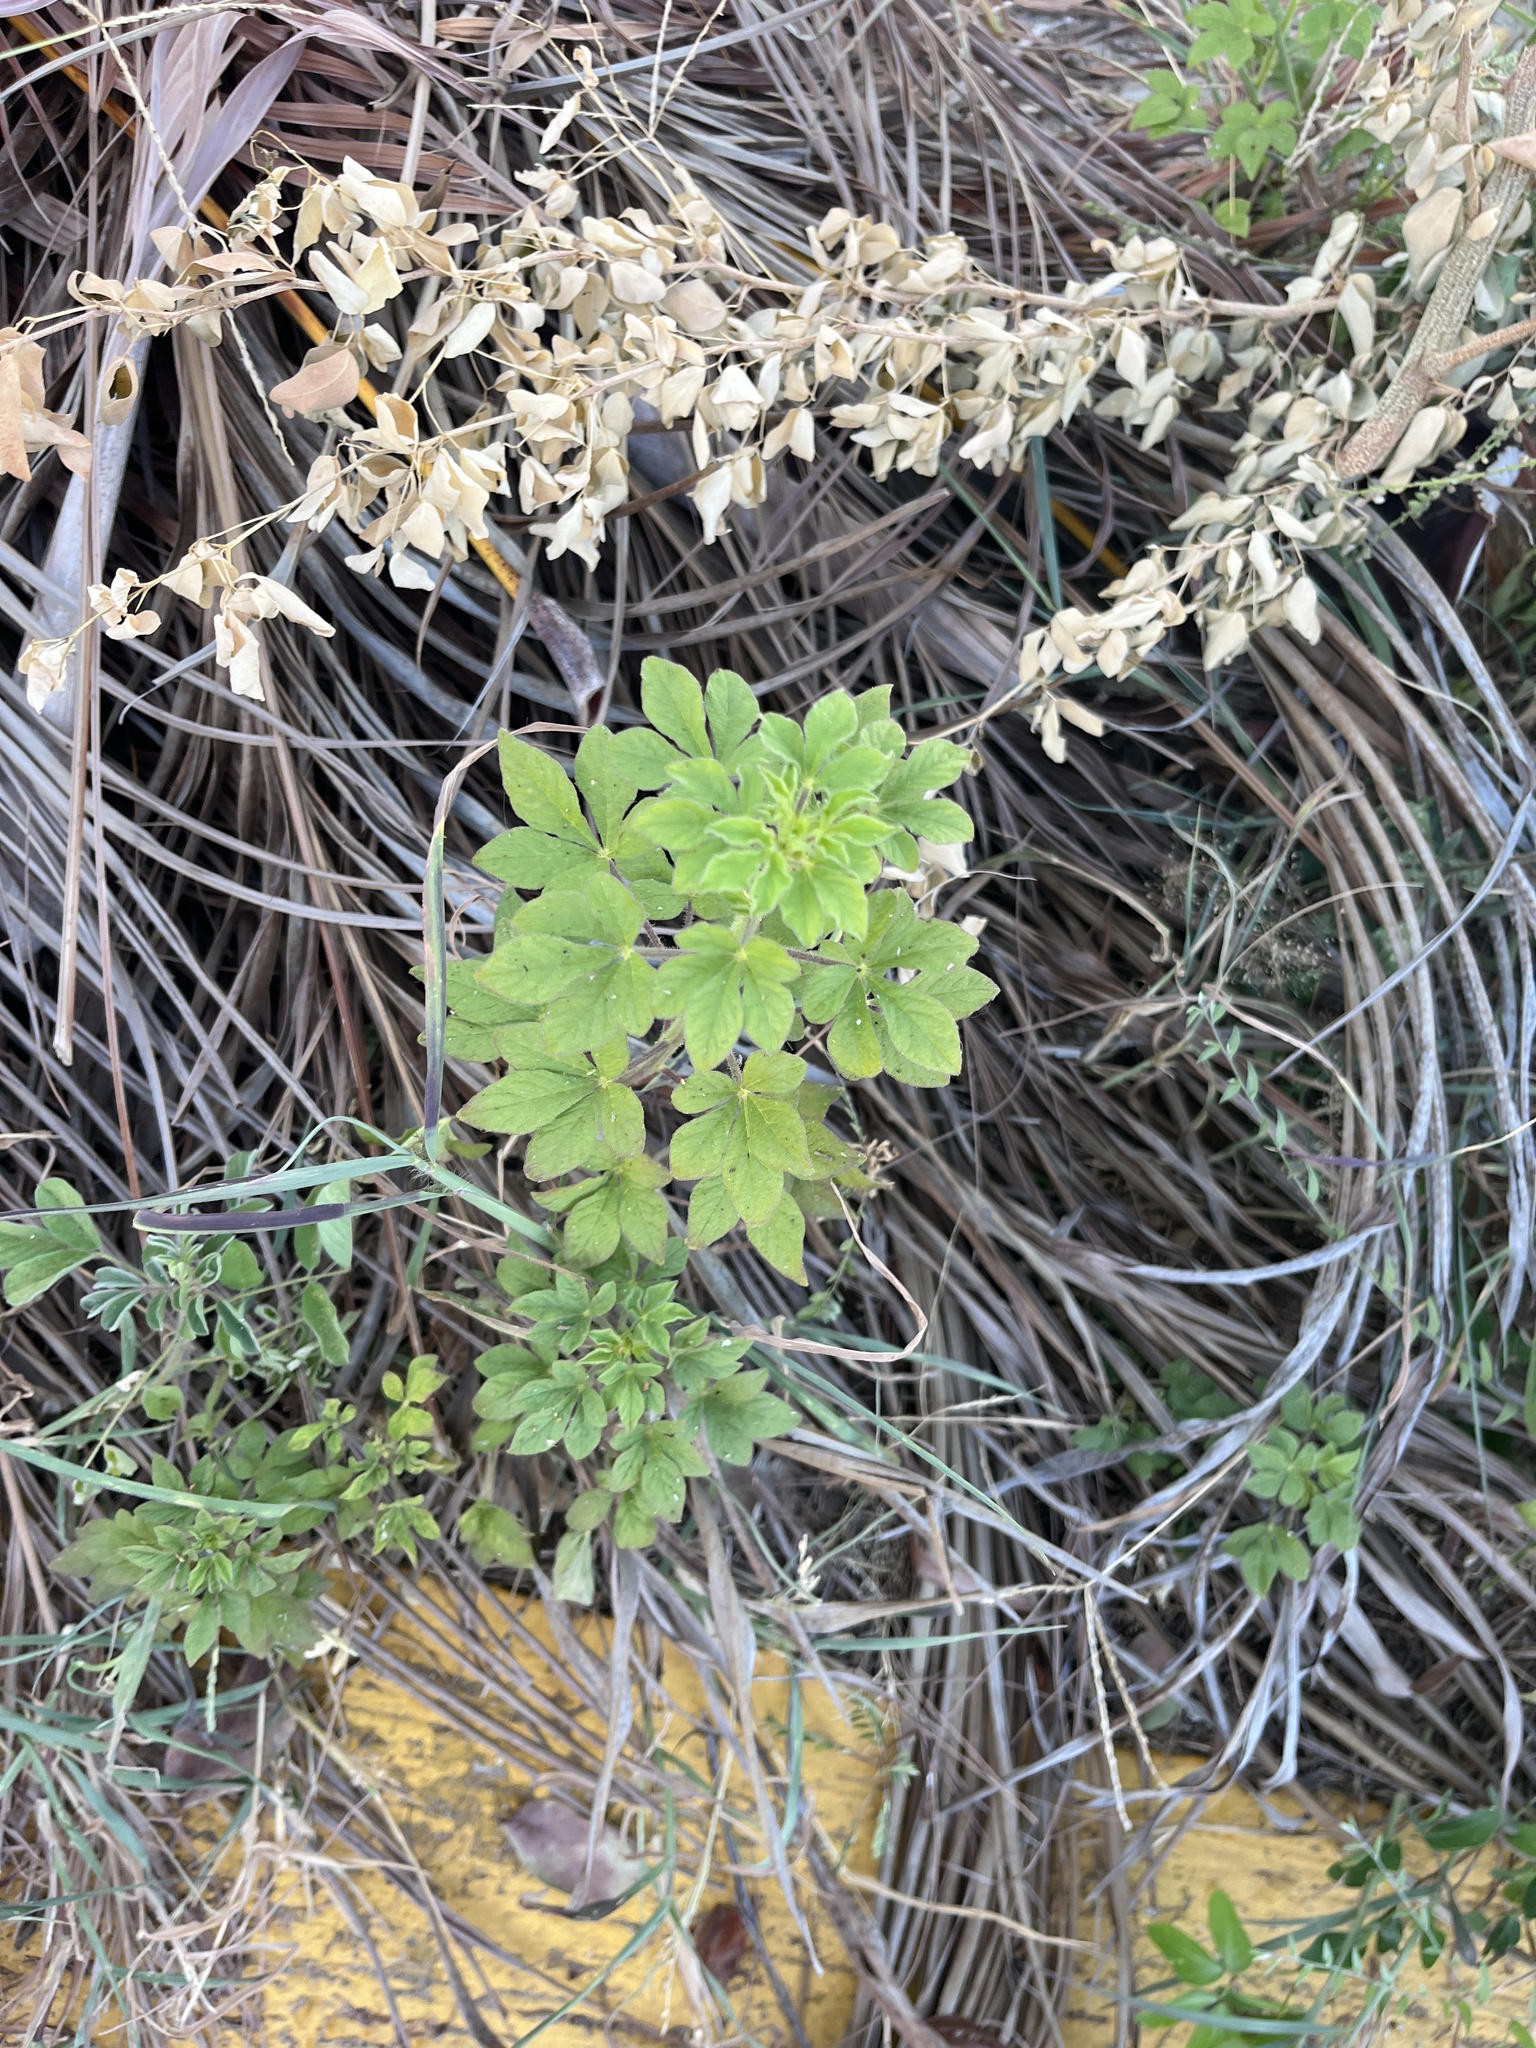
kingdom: Plantae
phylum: Tracheophyta
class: Magnoliopsida
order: Brassicales
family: Cleomaceae
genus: Arivela
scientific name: Arivela viscosa
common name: Asian spiderflower
